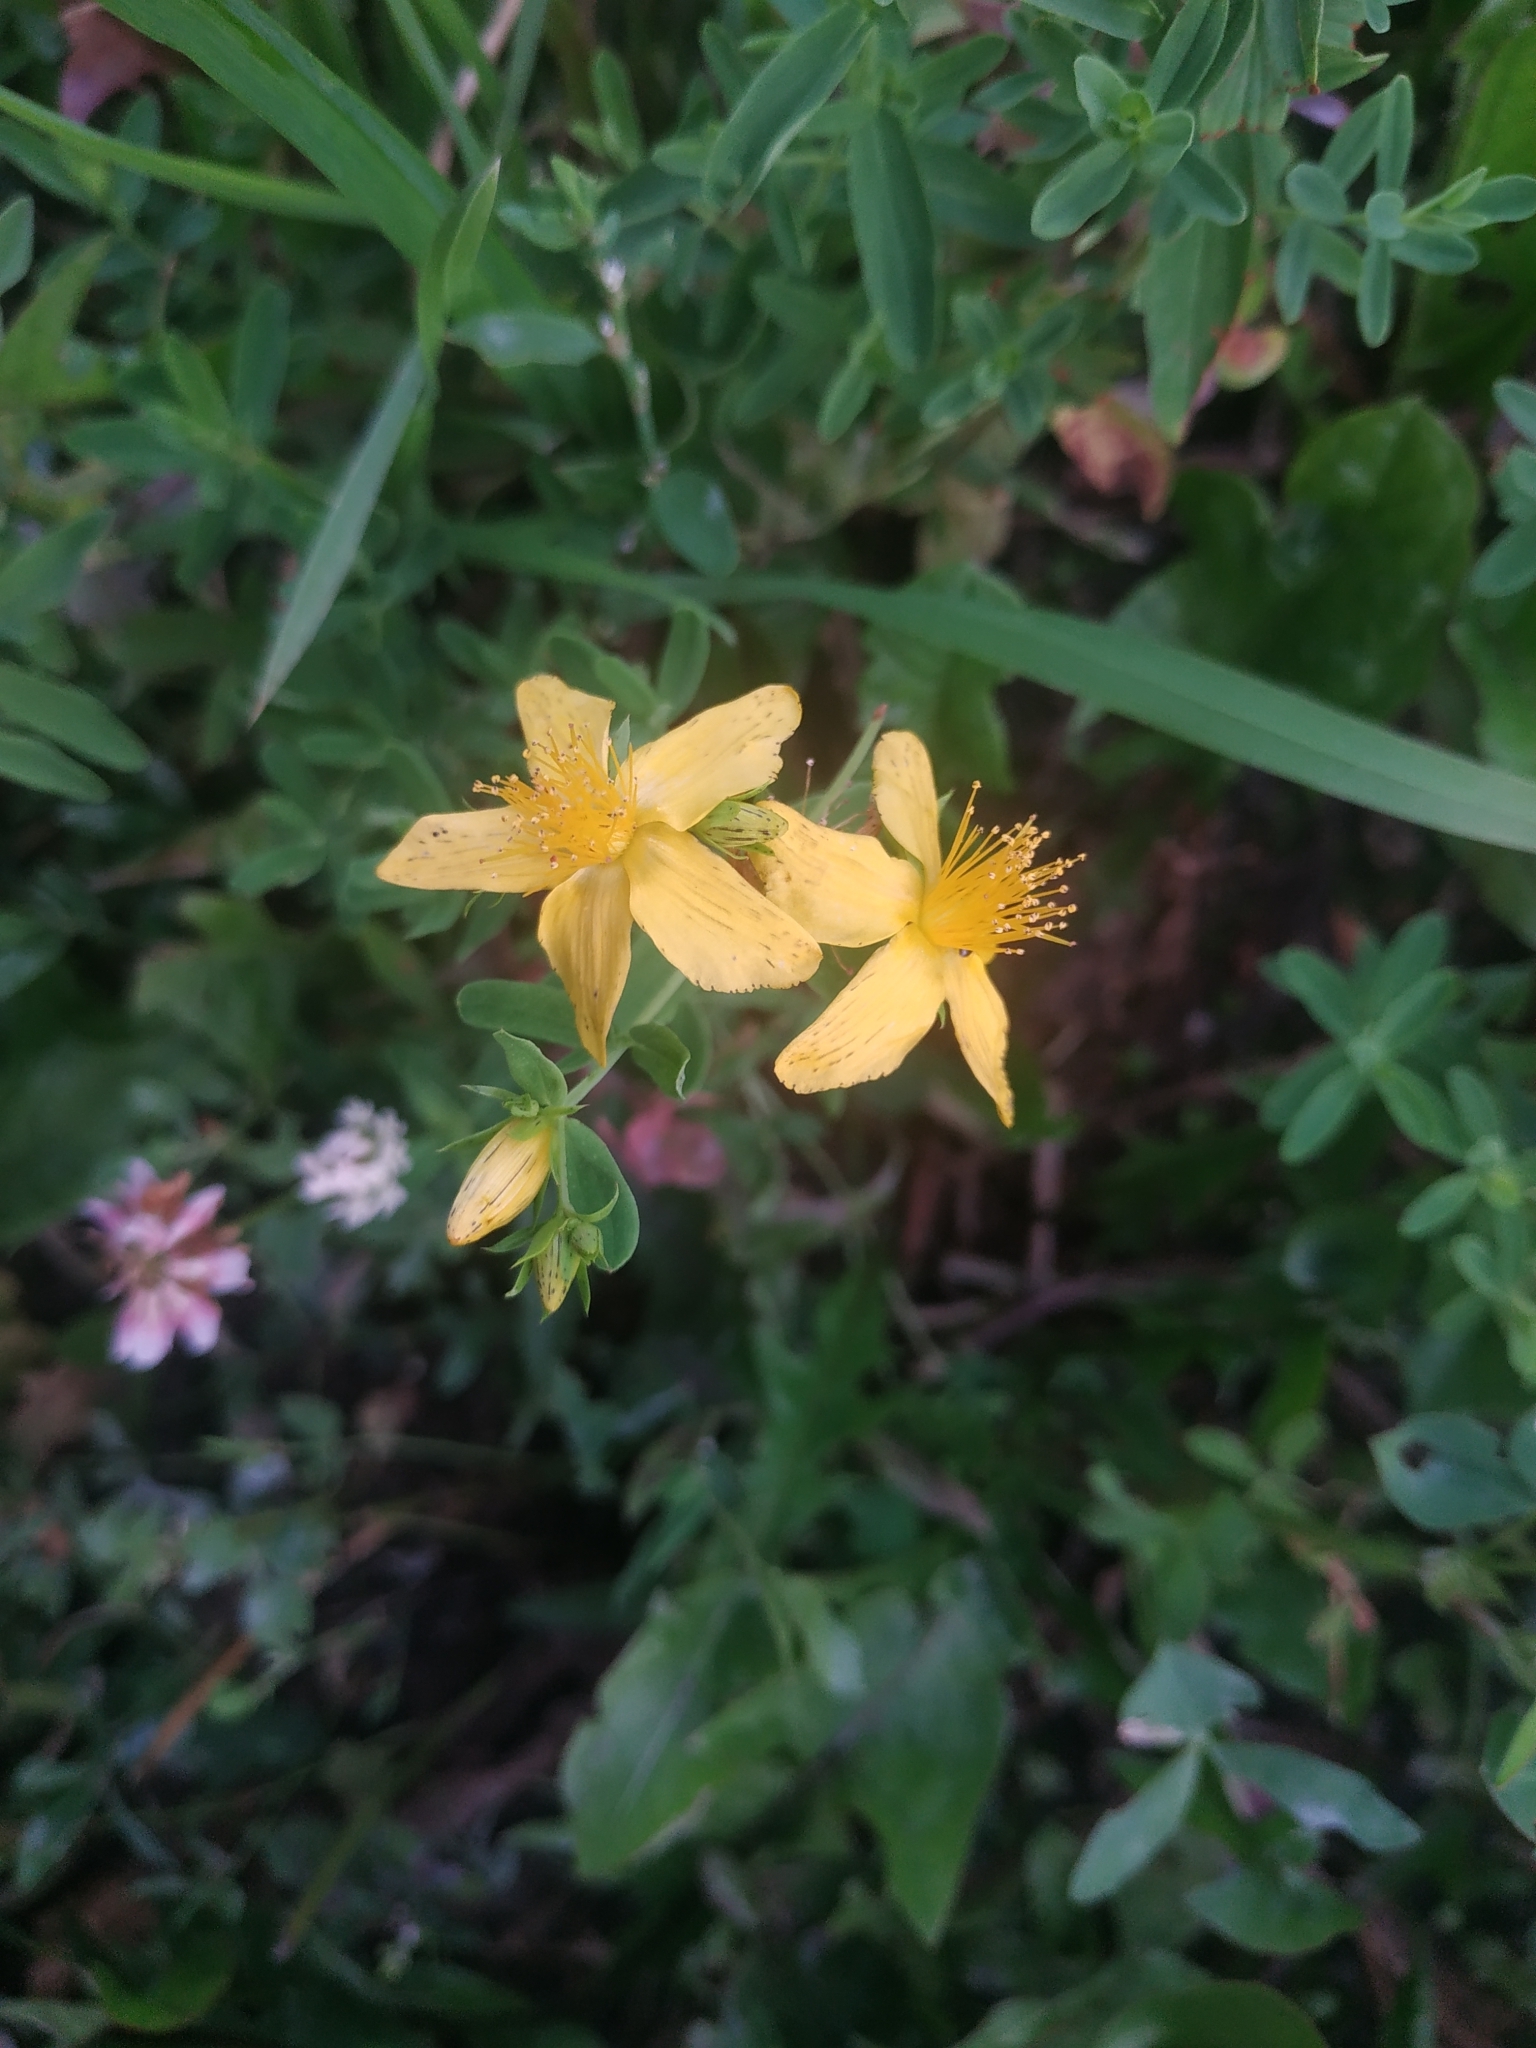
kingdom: Plantae
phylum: Tracheophyta
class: Magnoliopsida
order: Malpighiales
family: Hypericaceae
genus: Hypericum
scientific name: Hypericum perforatum
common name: Common st. johnswort
